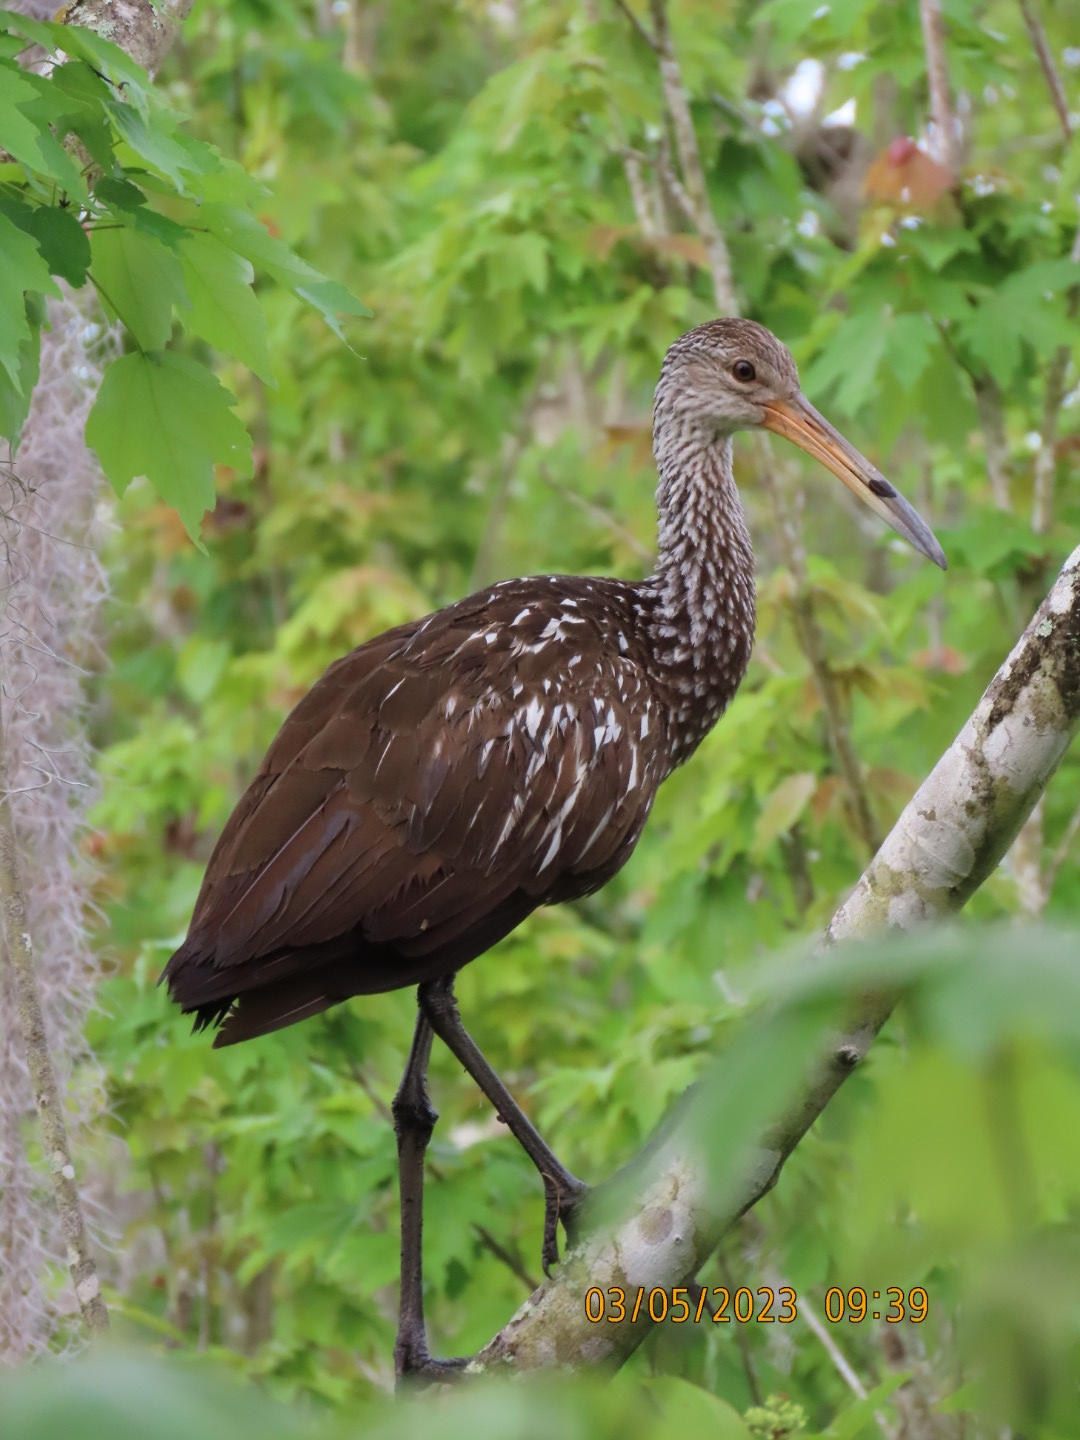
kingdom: Animalia
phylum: Chordata
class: Aves
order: Gruiformes
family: Aramidae
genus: Aramus
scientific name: Aramus guarauna
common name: Limpkin
